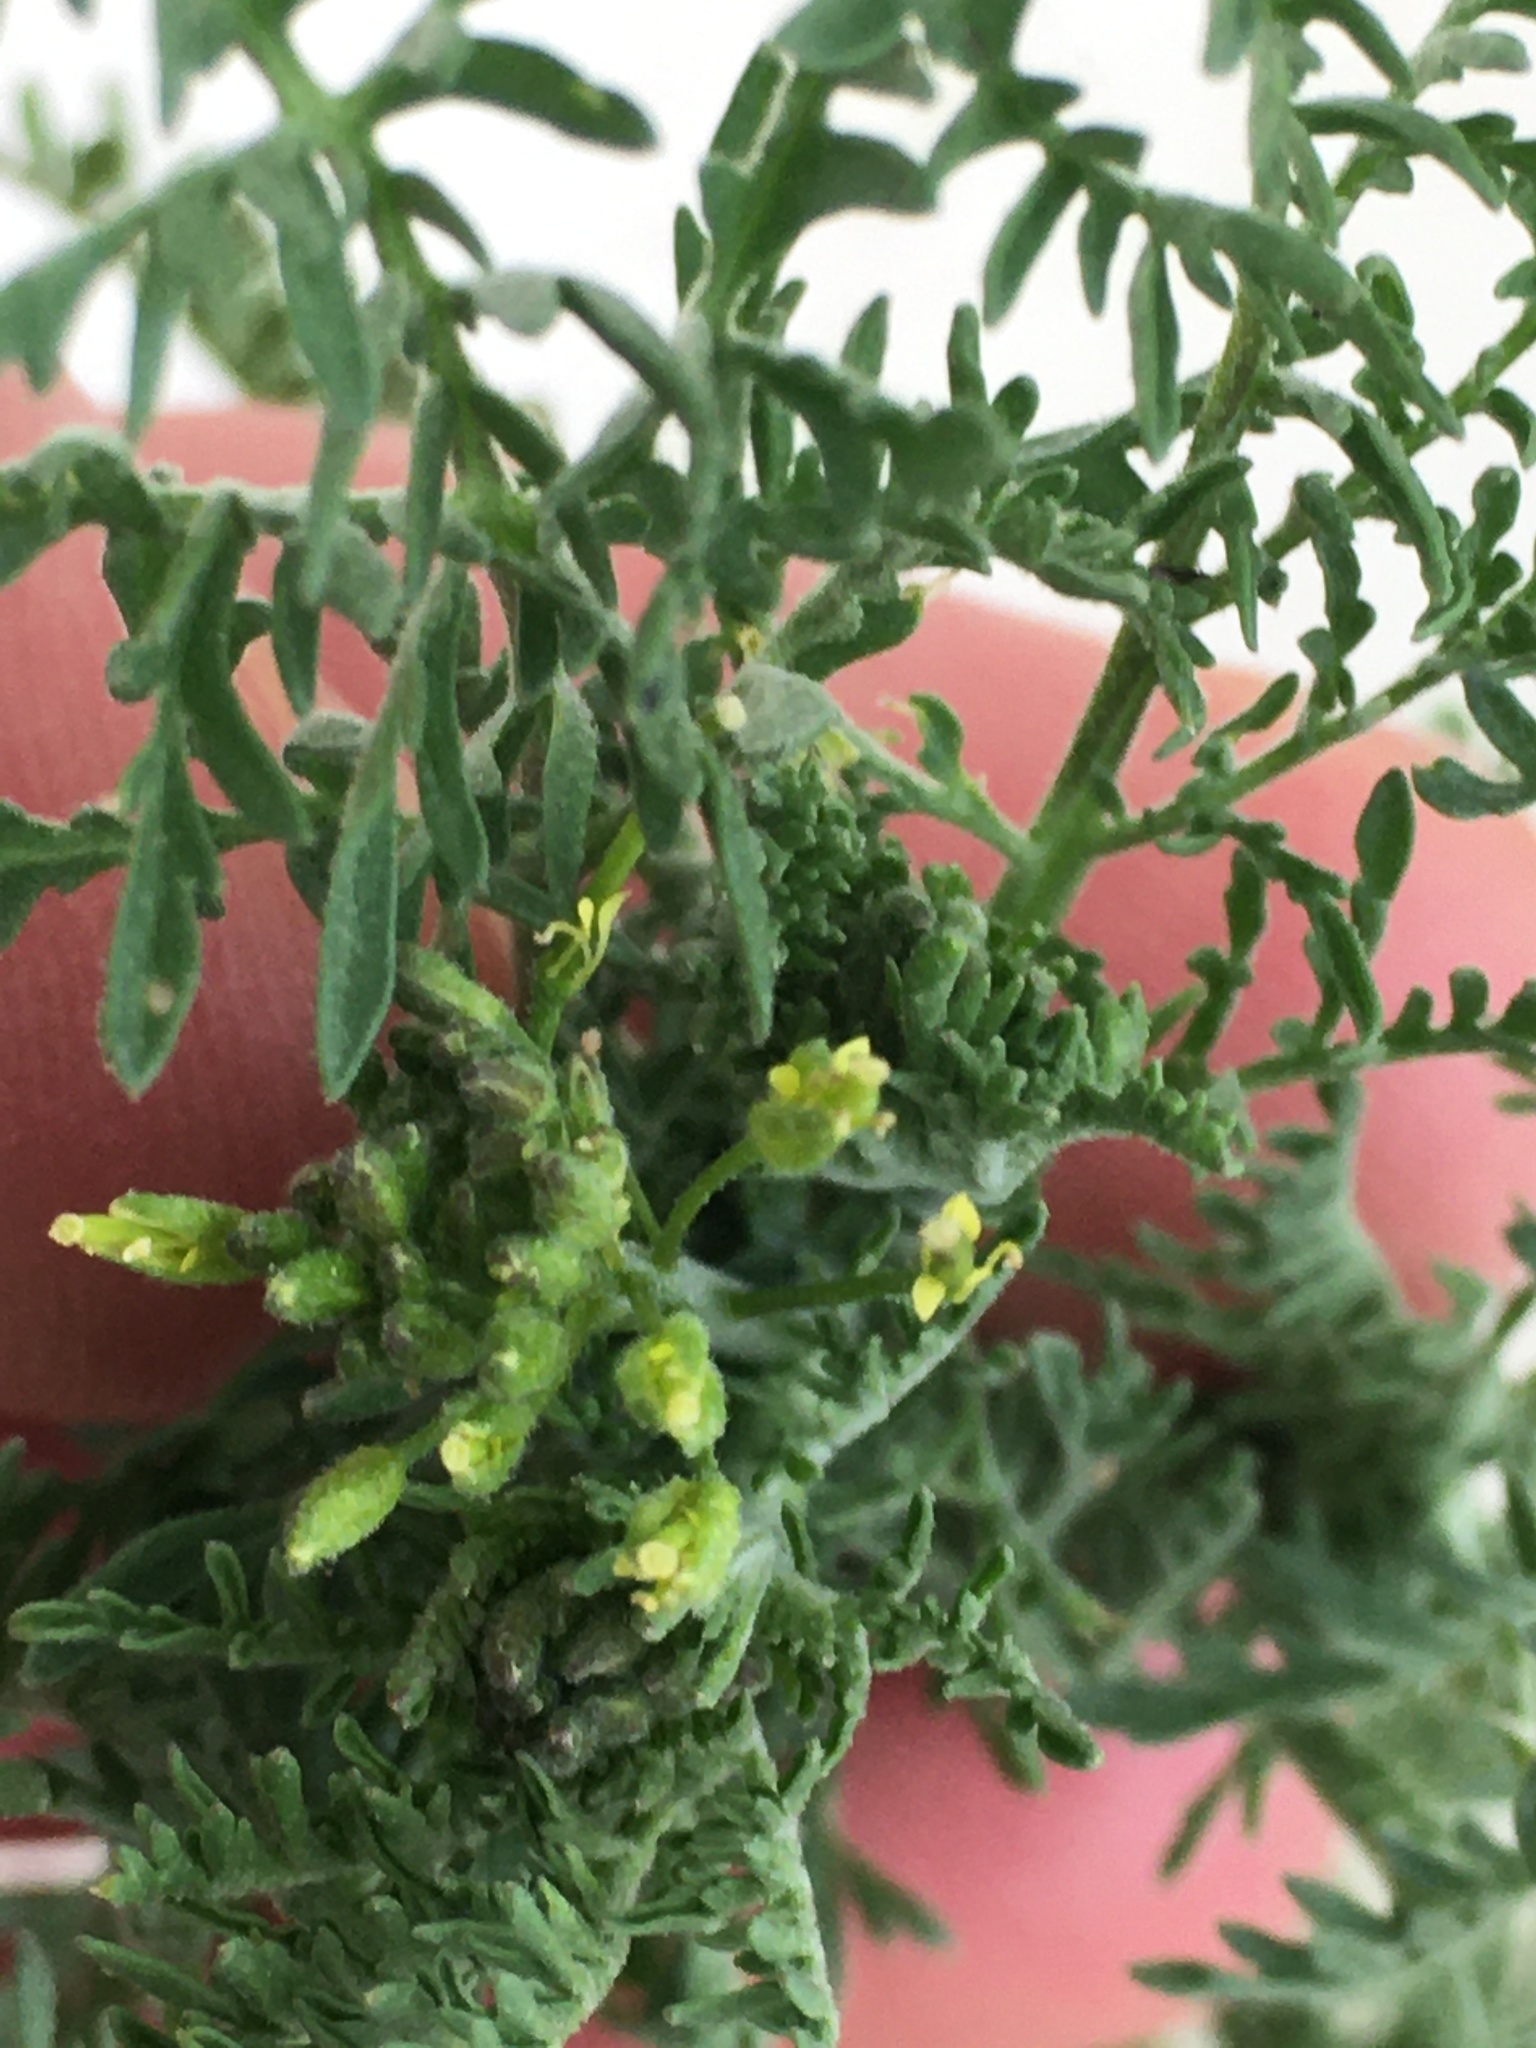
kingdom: Plantae
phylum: Tracheophyta
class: Magnoliopsida
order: Brassicales
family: Brassicaceae
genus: Descurainia
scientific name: Descurainia sophia
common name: Flixweed
